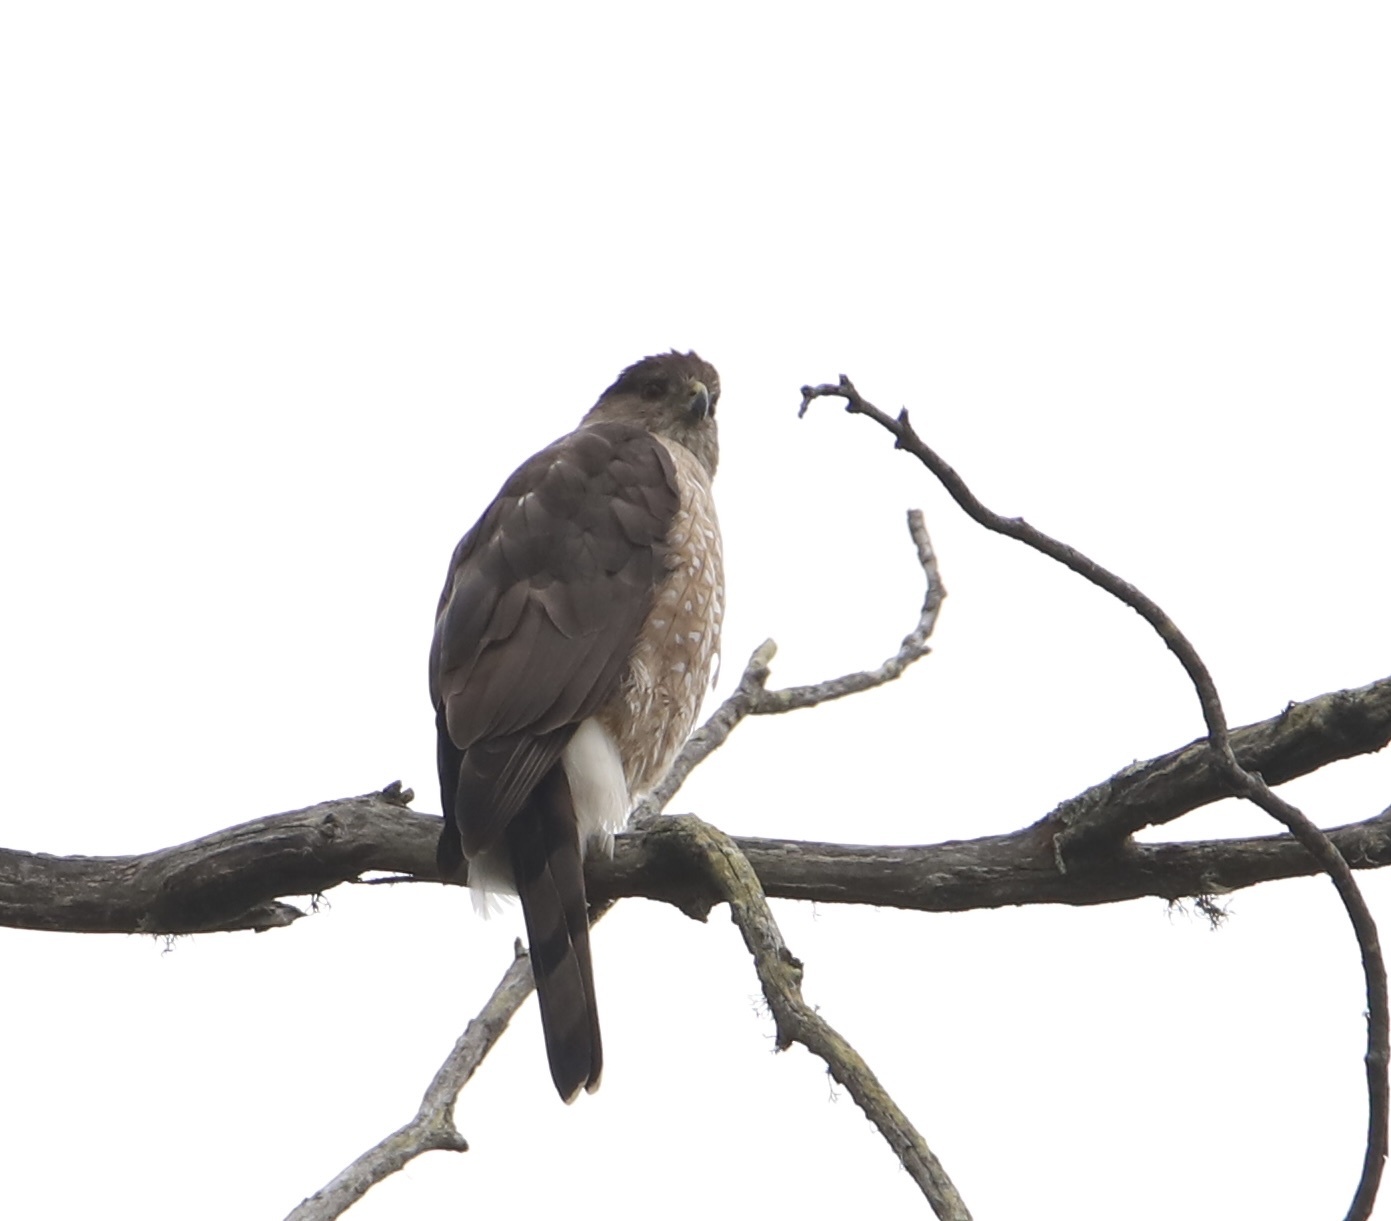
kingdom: Animalia
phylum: Chordata
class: Aves
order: Accipitriformes
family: Accipitridae
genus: Accipiter
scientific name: Accipiter cooperii
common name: Cooper's hawk
